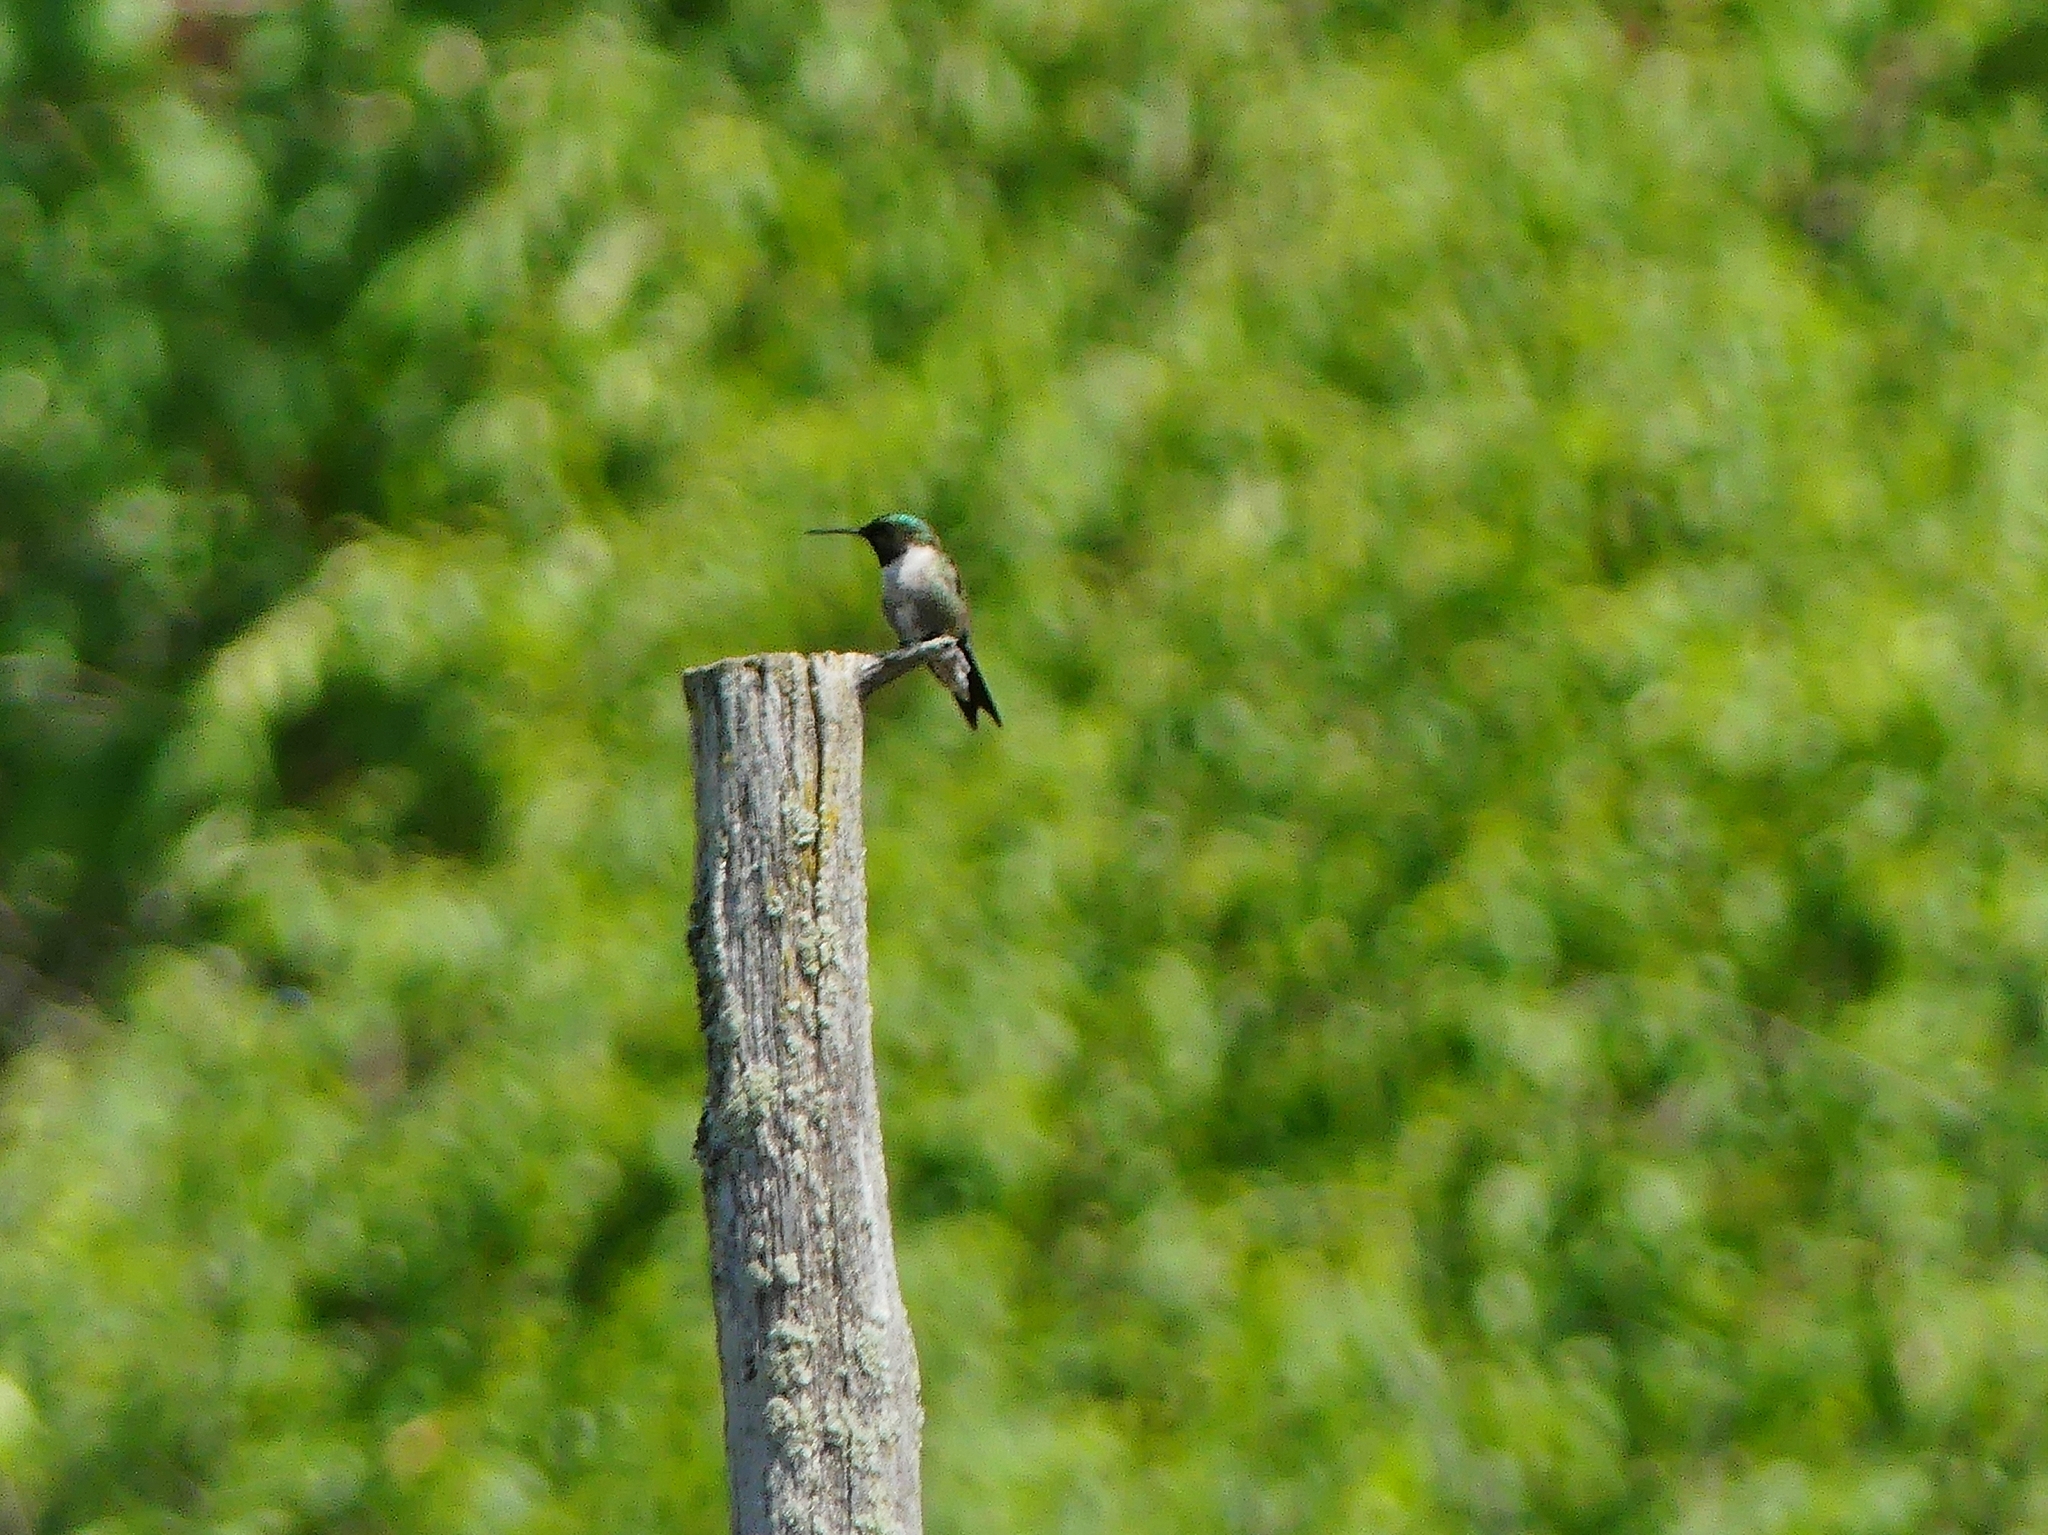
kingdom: Animalia
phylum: Chordata
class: Aves
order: Apodiformes
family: Trochilidae
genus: Archilochus
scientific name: Archilochus colubris
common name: Ruby-throated hummingbird
